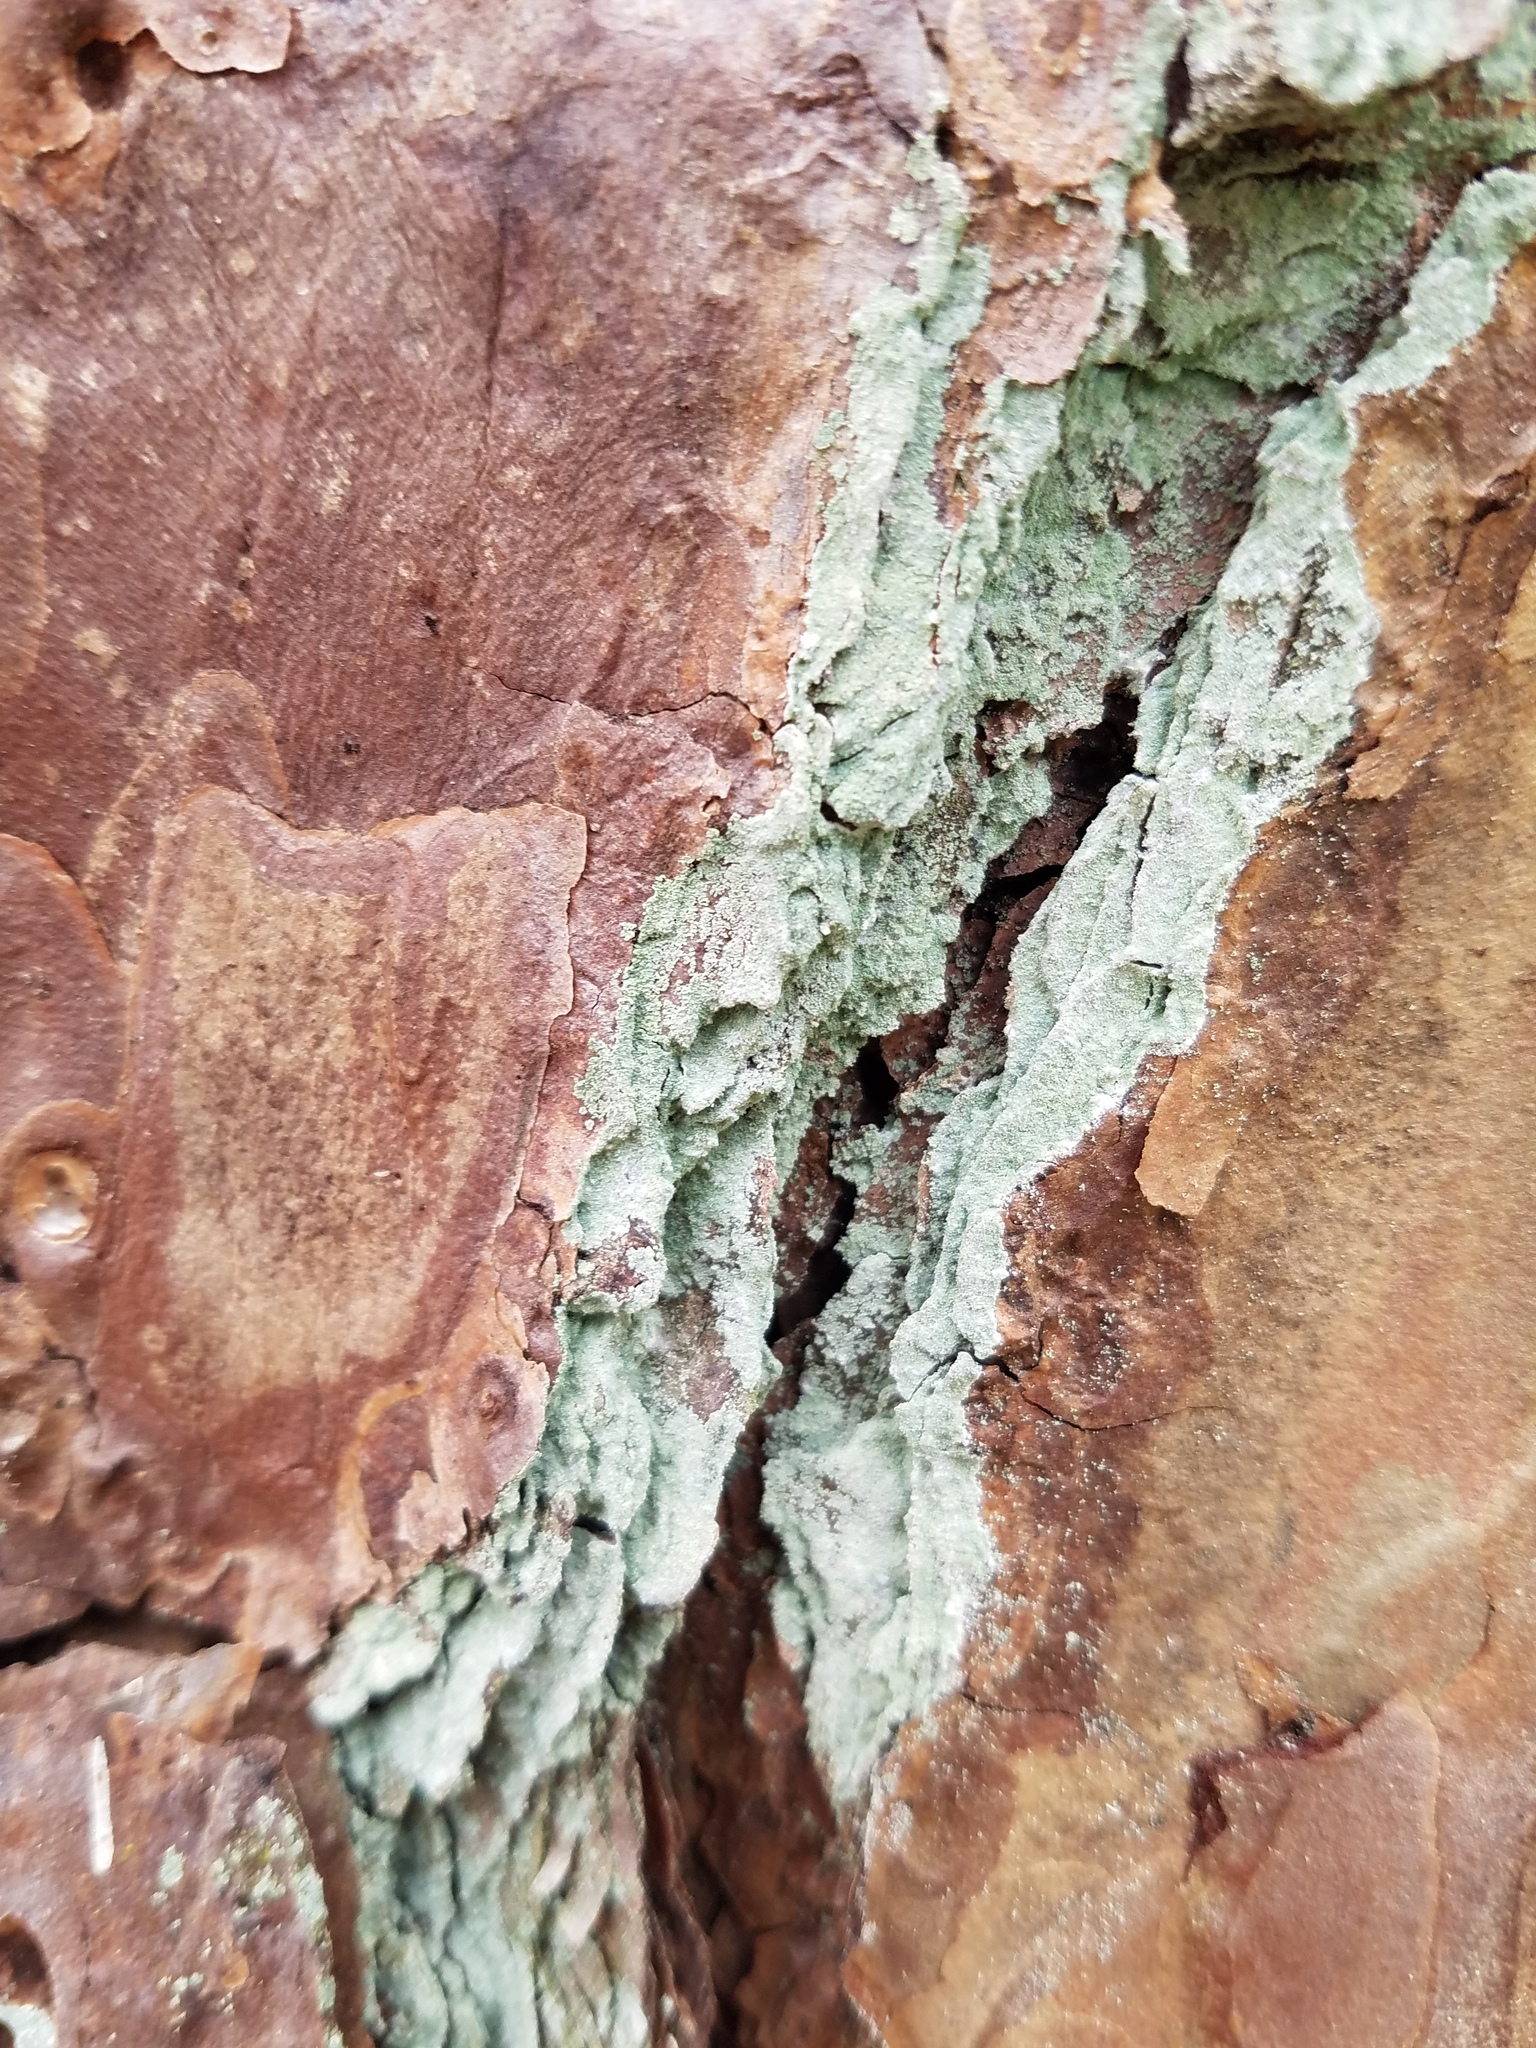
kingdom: Fungi
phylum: Ascomycota
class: Lecanoromycetes
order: Lecanorales
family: Stereocaulaceae
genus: Lepraria
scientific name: Lepraria harrisiana
